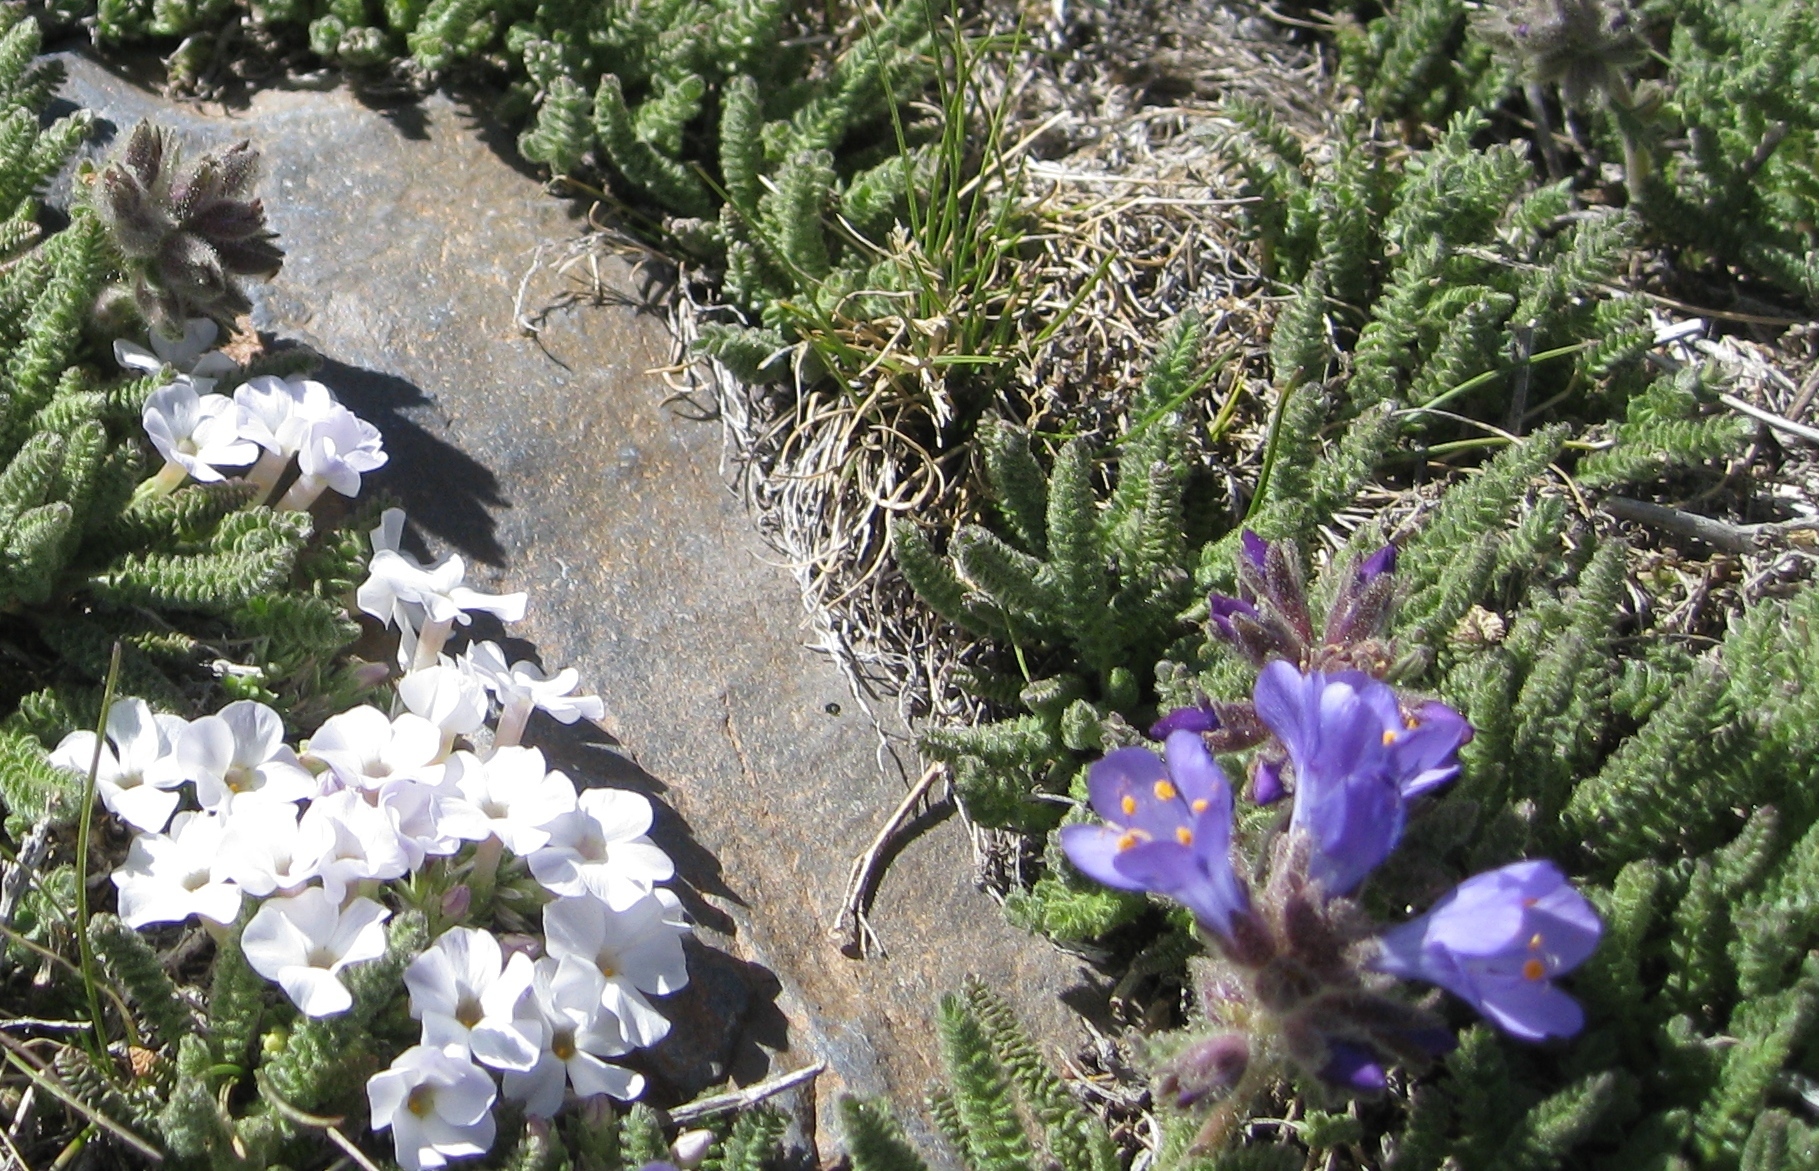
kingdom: Plantae
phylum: Tracheophyta
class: Magnoliopsida
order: Ericales
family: Polemoniaceae
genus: Phlox
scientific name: Phlox pulvinata
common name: Cushion phlox
